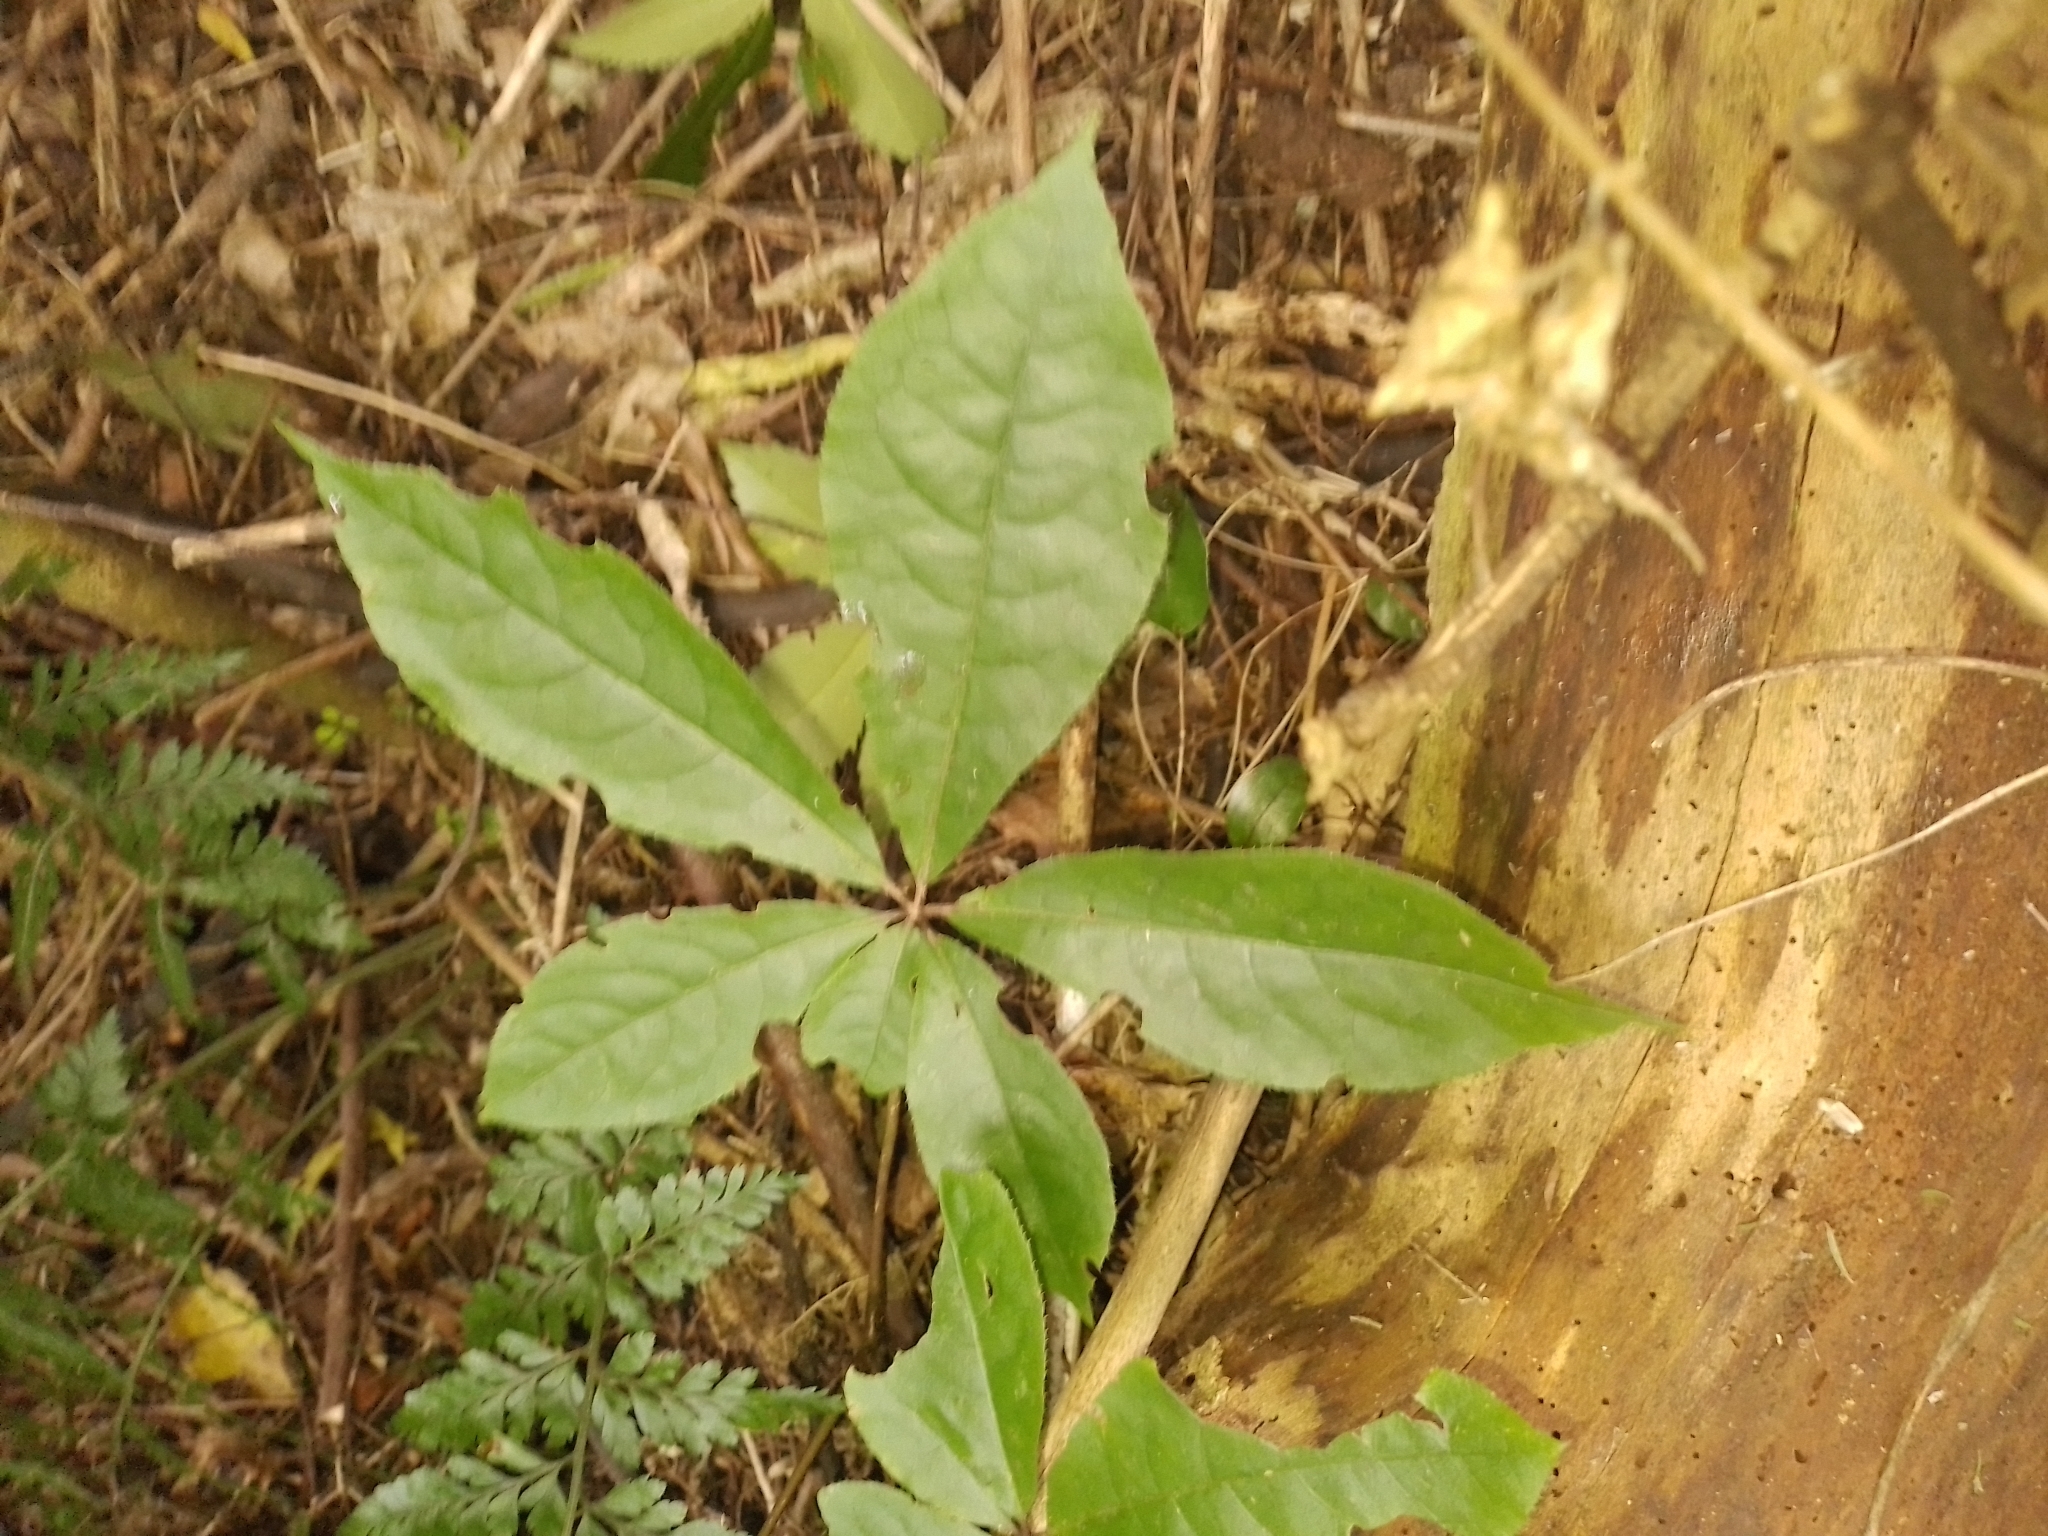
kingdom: Plantae
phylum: Tracheophyta
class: Magnoliopsida
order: Apiales
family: Araliaceae
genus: Schefflera
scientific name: Schefflera digitata
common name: Pate
